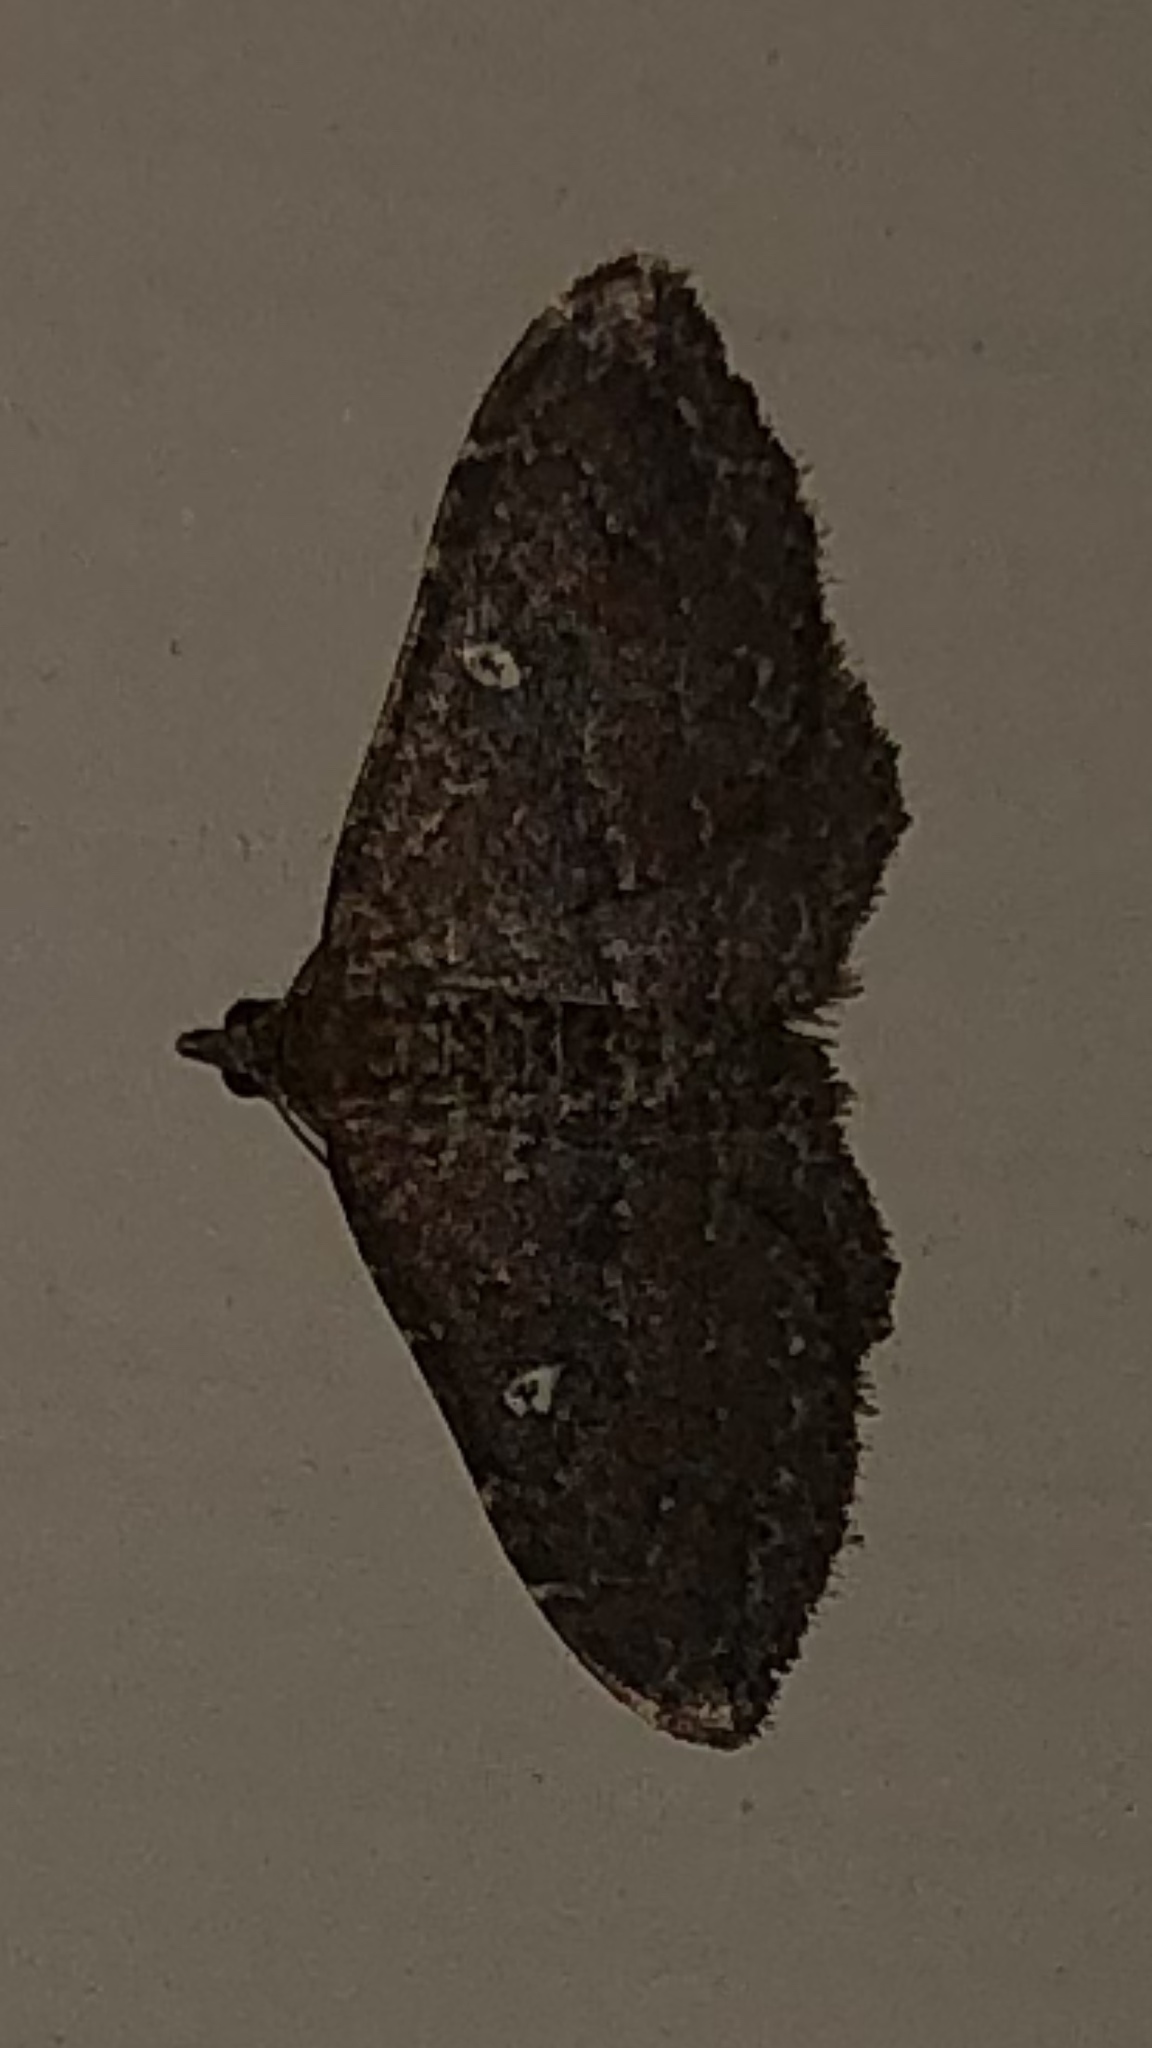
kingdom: Animalia
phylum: Arthropoda
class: Insecta
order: Lepidoptera
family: Geometridae
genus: Orthonama
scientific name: Orthonama obstipata
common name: The gem
